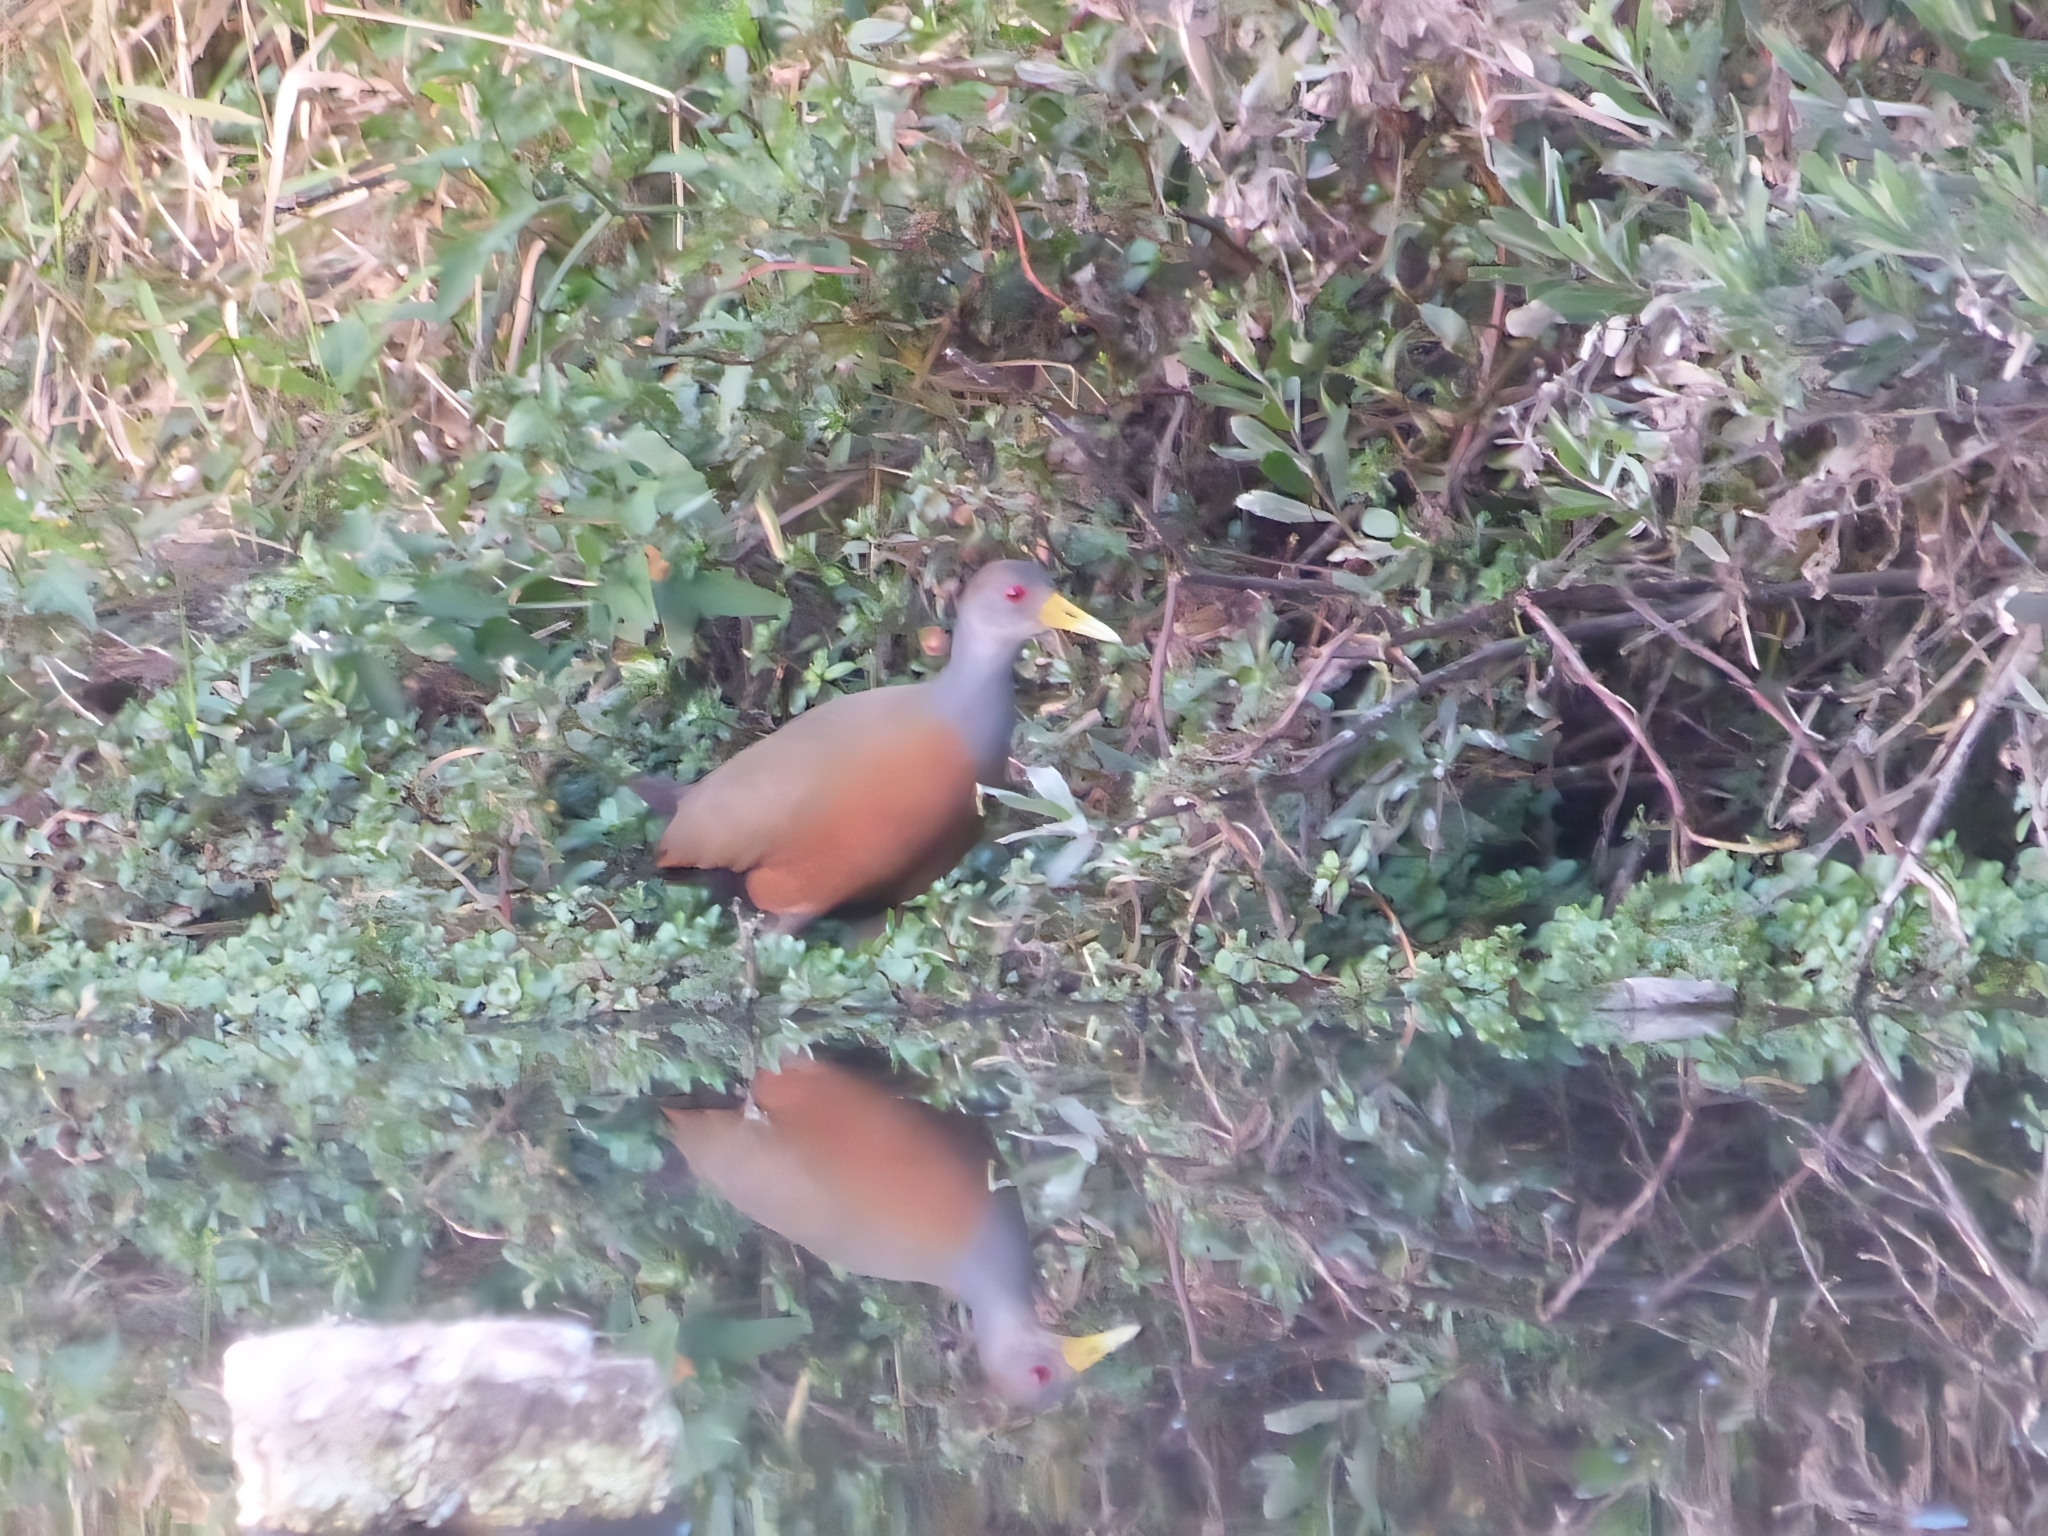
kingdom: Animalia
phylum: Chordata
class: Aves
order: Gruiformes
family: Rallidae
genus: Aramides
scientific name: Aramides cajanea
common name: Gray-necked wood-rail
